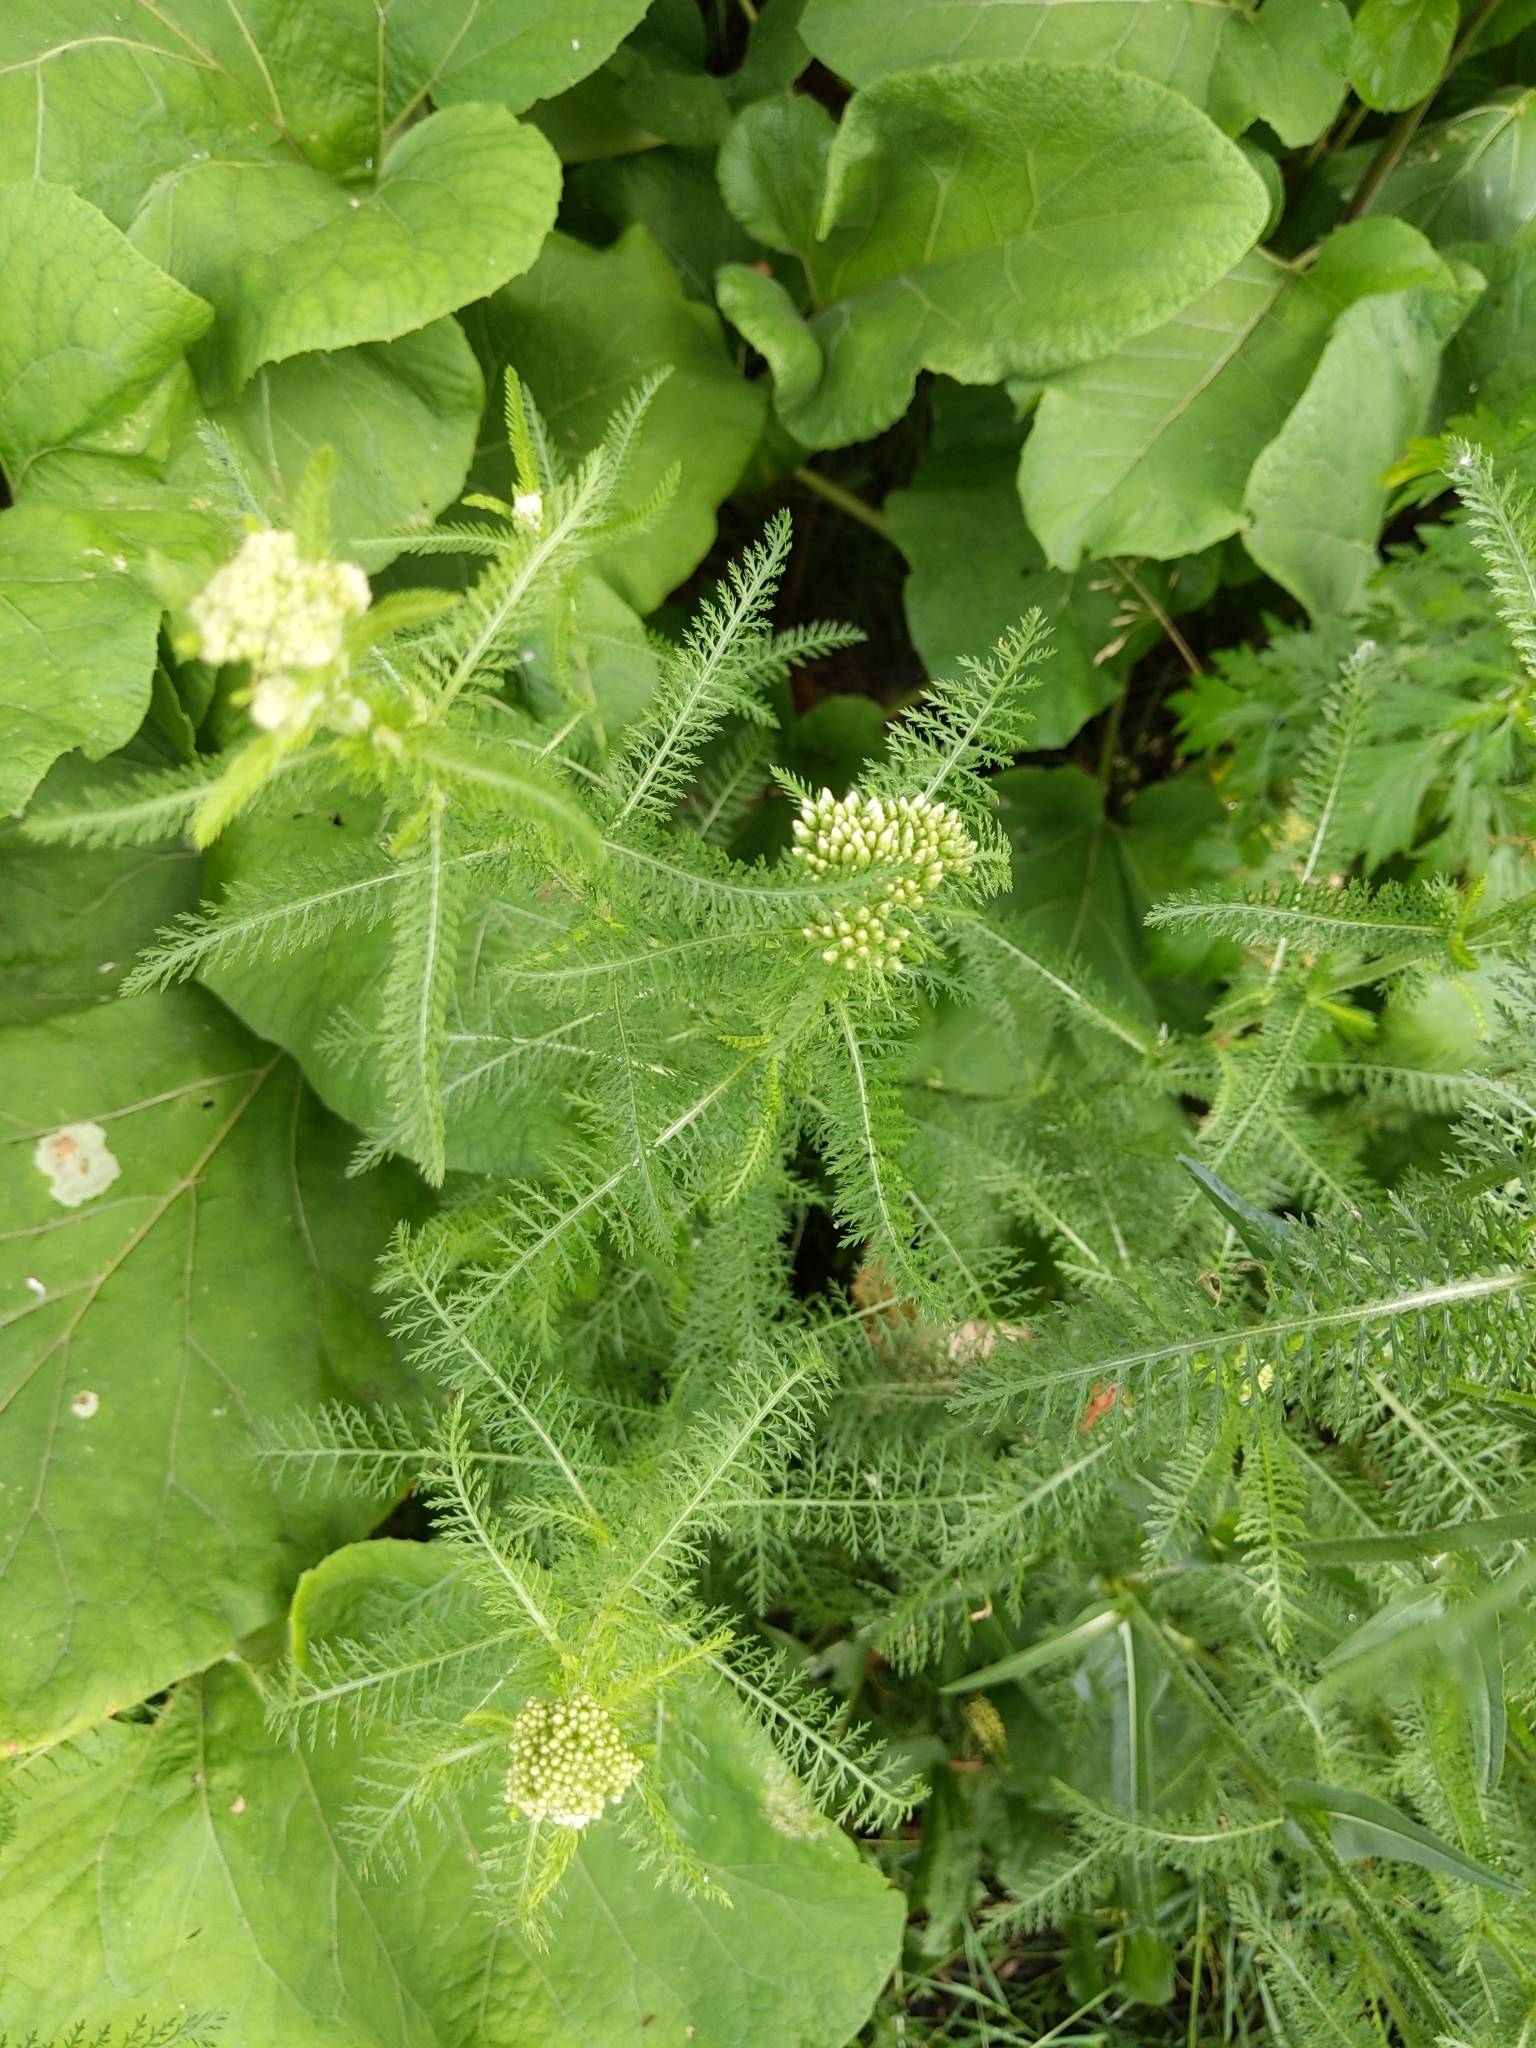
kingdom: Plantae
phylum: Tracheophyta
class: Magnoliopsida
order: Asterales
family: Asteraceae
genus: Achillea
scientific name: Achillea millefolium
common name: Yarrow
